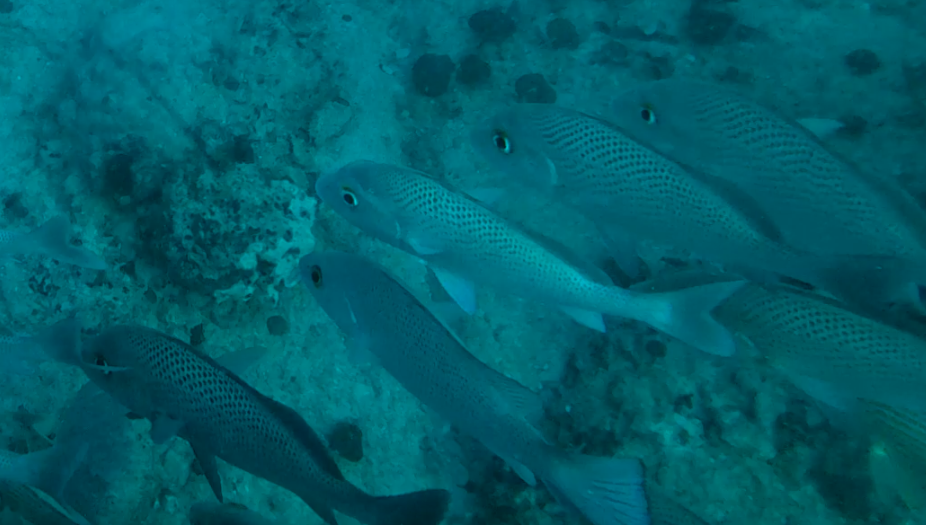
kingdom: Animalia
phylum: Chordata
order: Perciformes
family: Haemulidae
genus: Haemulon
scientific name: Haemulon parra
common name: Sailor's choice
